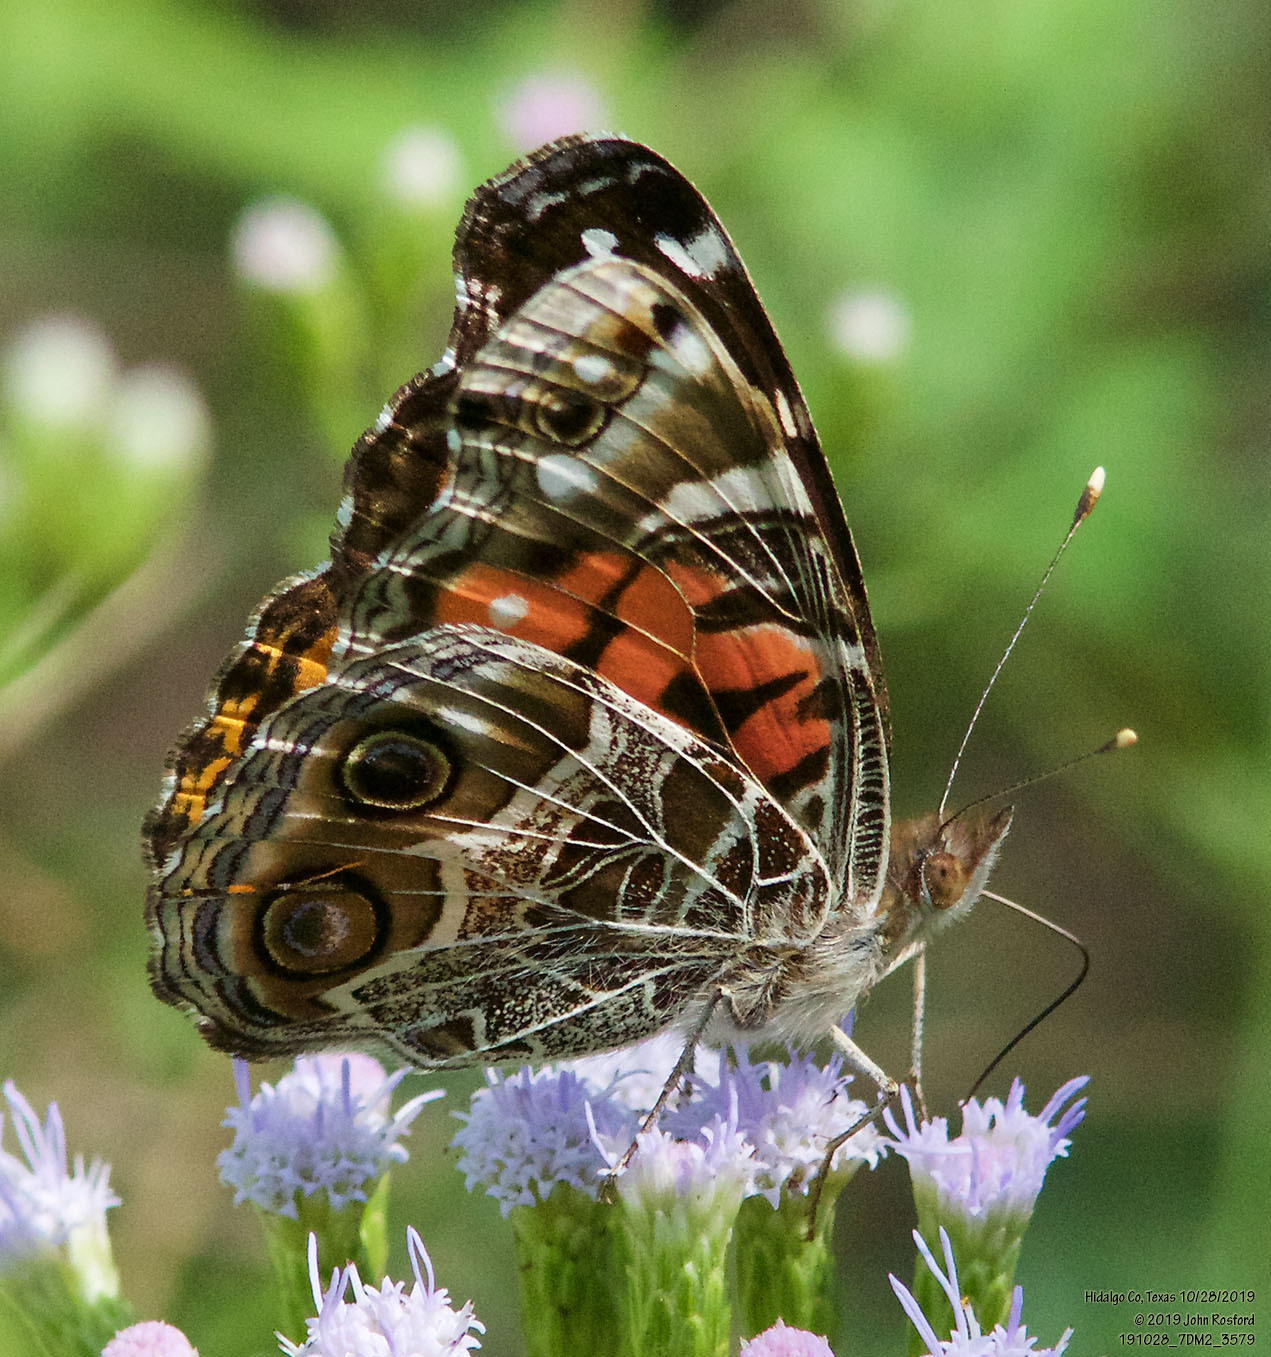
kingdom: Animalia
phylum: Arthropoda
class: Insecta
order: Lepidoptera
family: Nymphalidae
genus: Vanessa
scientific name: Vanessa virginiensis
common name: American lady
